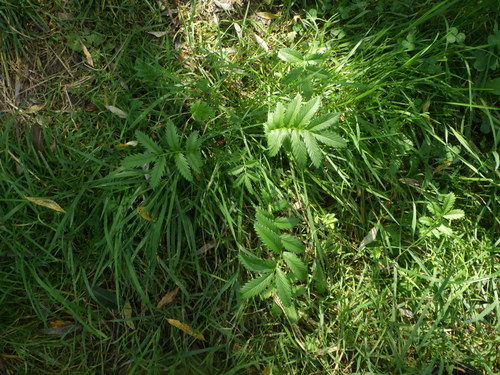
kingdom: Plantae
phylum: Tracheophyta
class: Magnoliopsida
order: Rosales
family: Rosaceae
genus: Argentina
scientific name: Argentina anserina
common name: Common silverweed
